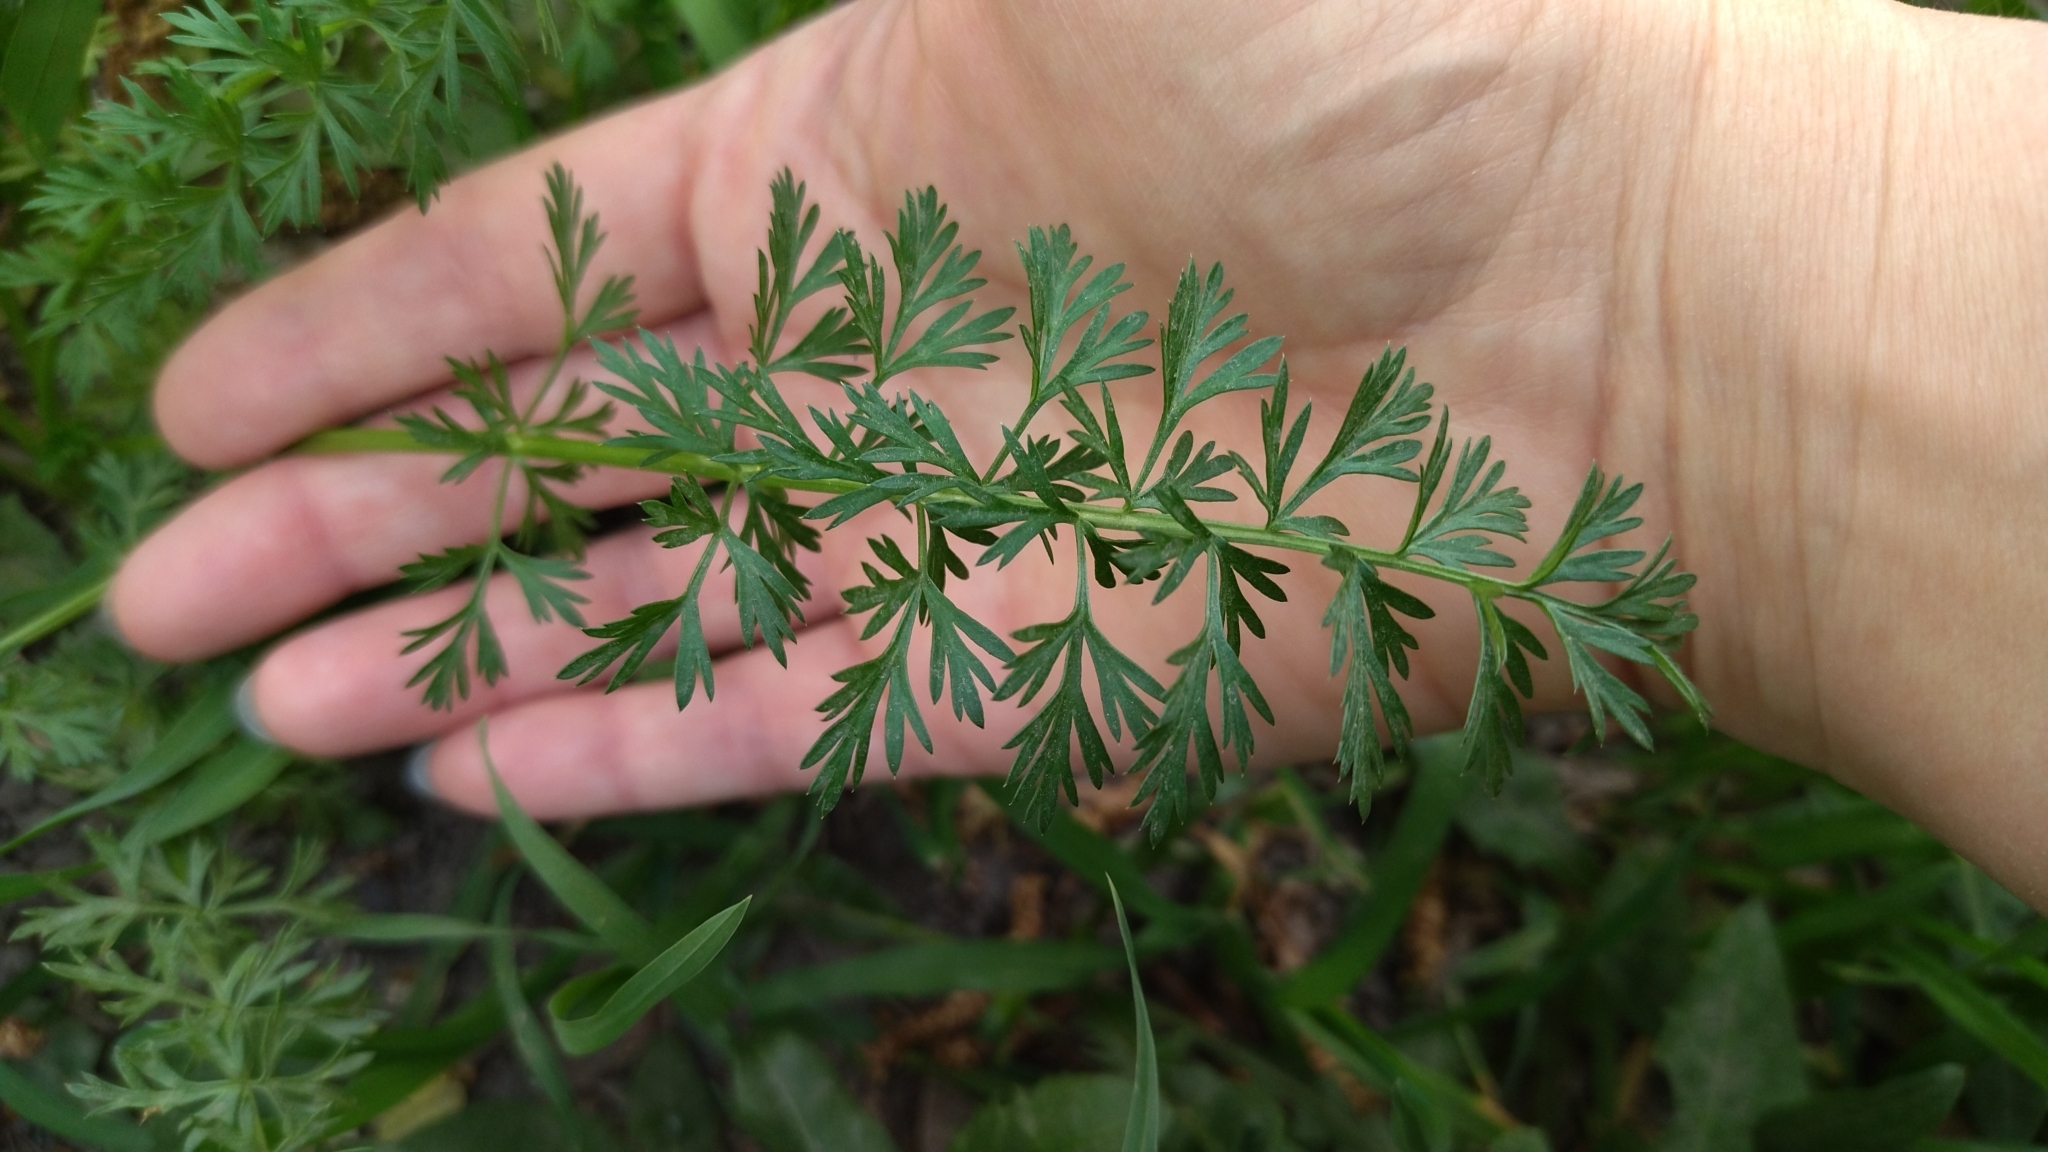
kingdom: Plantae
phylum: Tracheophyta
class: Magnoliopsida
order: Apiales
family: Apiaceae
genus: Carum
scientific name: Carum carvi
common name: Caraway
